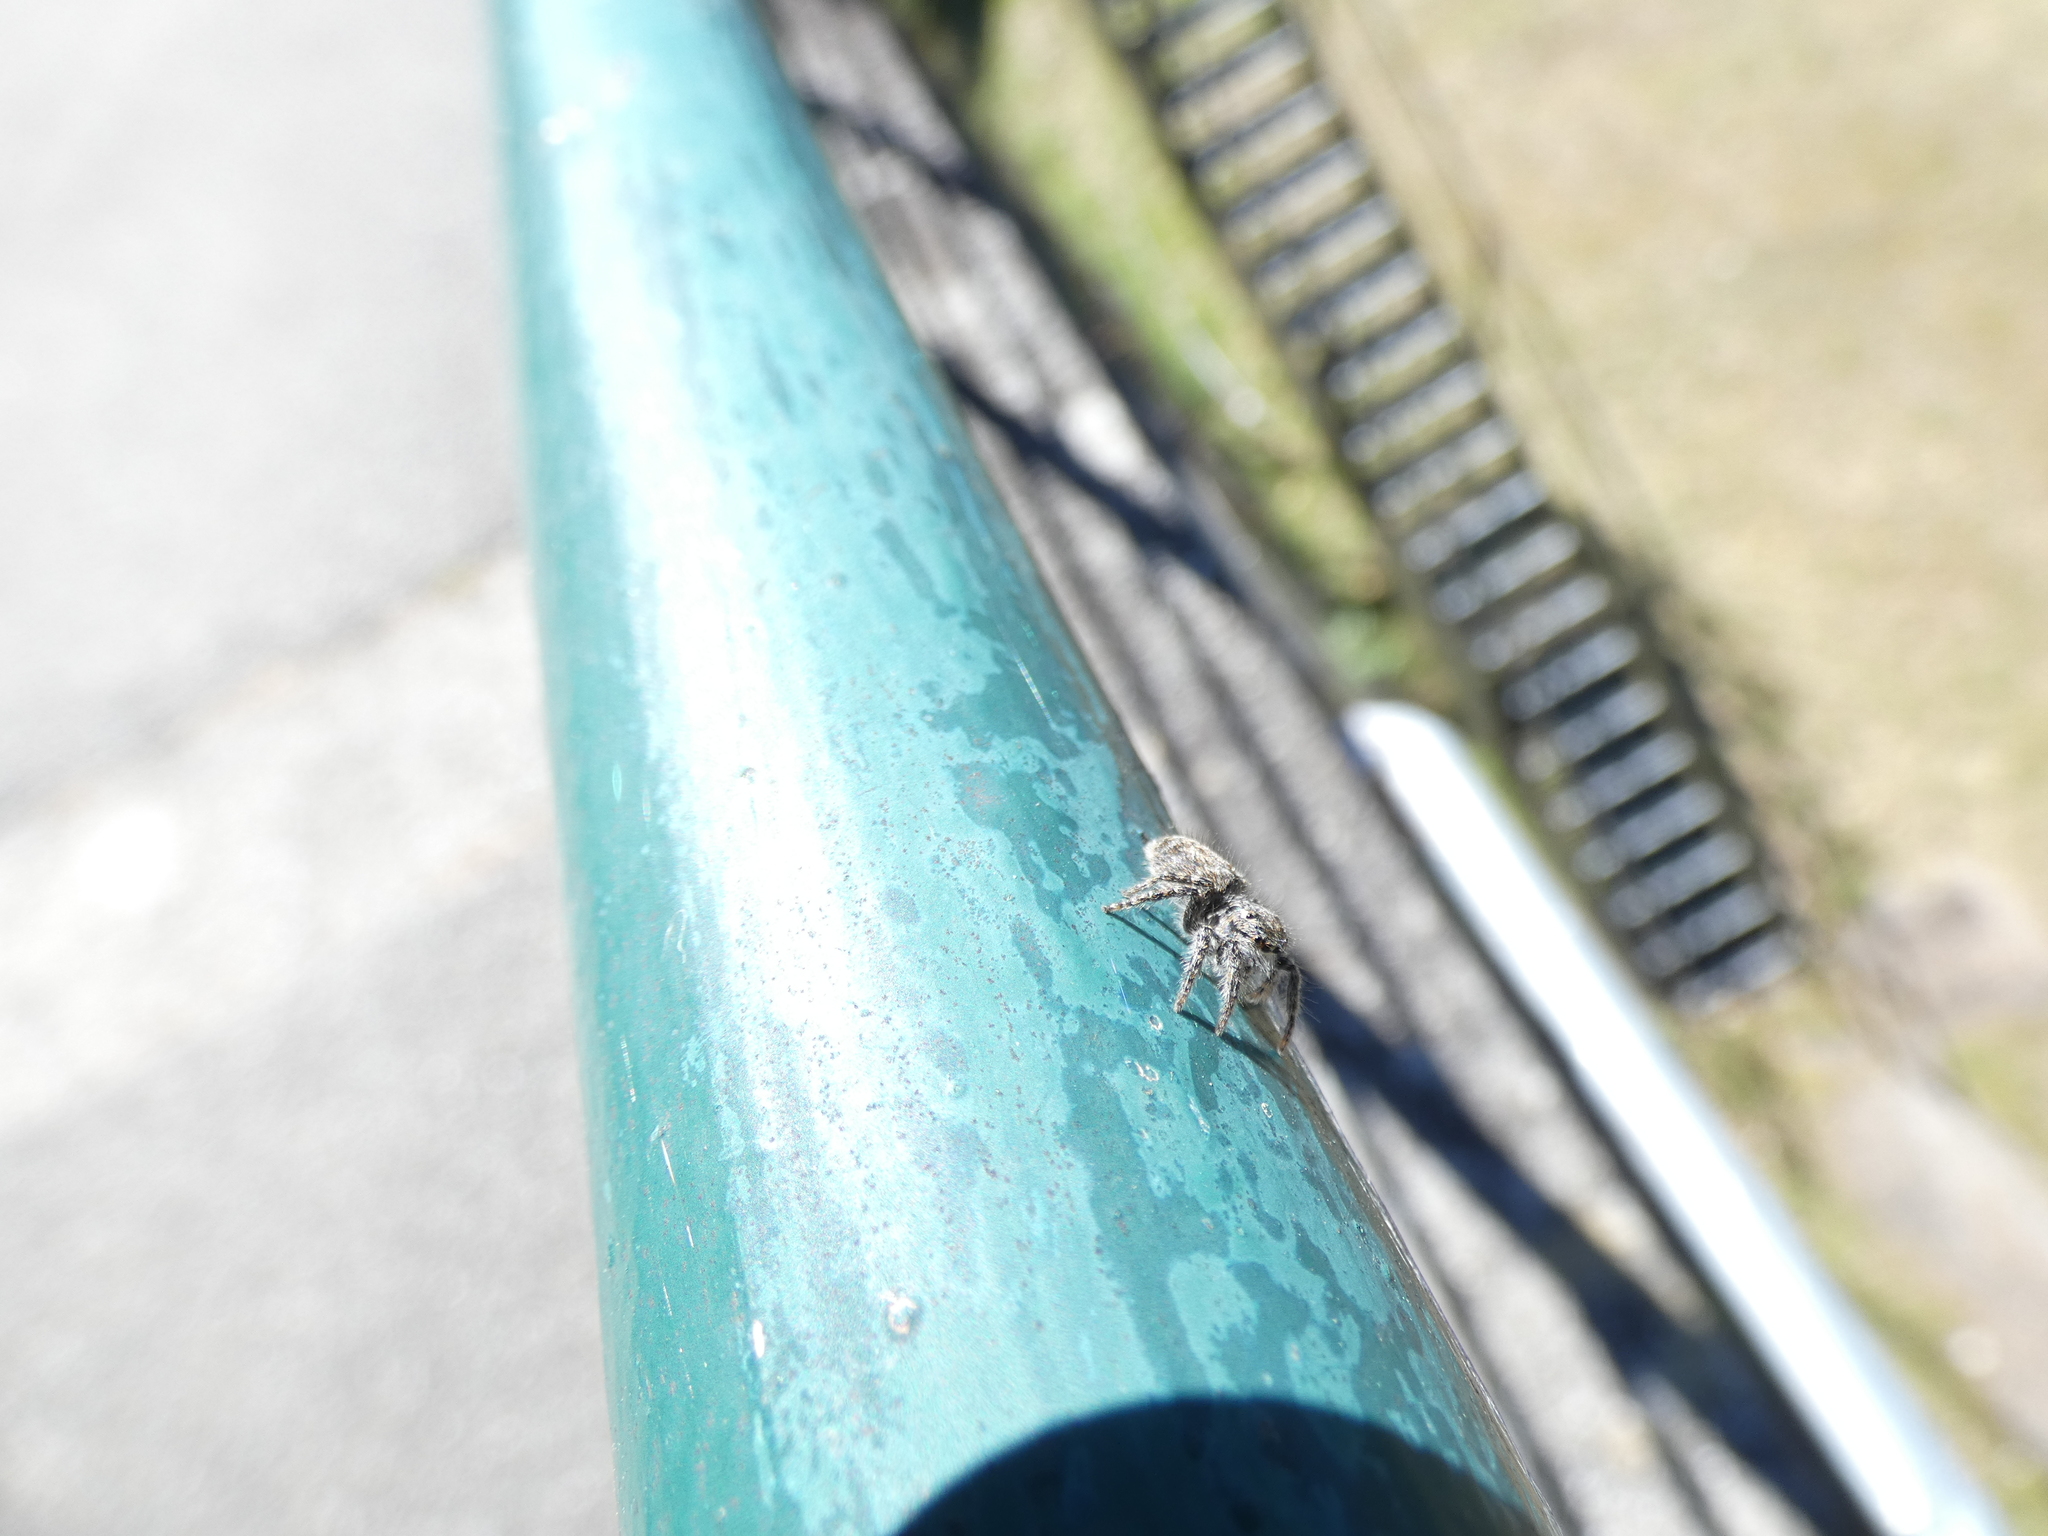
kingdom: Animalia
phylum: Arthropoda
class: Arachnida
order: Araneae
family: Salticidae
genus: Philaeus
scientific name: Philaeus chrysops
